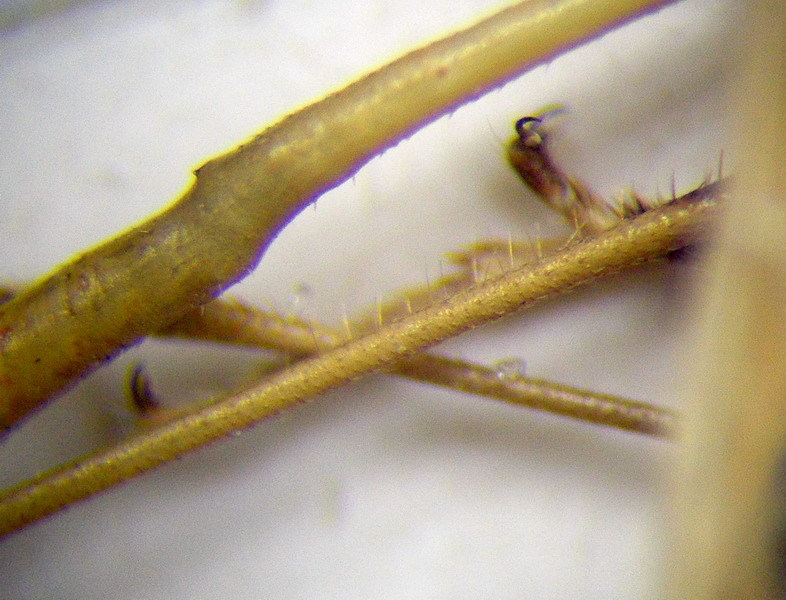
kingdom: Animalia
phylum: Arthropoda
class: Insecta
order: Hemiptera
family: Rhopalidae
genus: Chorosoma
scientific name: Chorosoma schillingii
